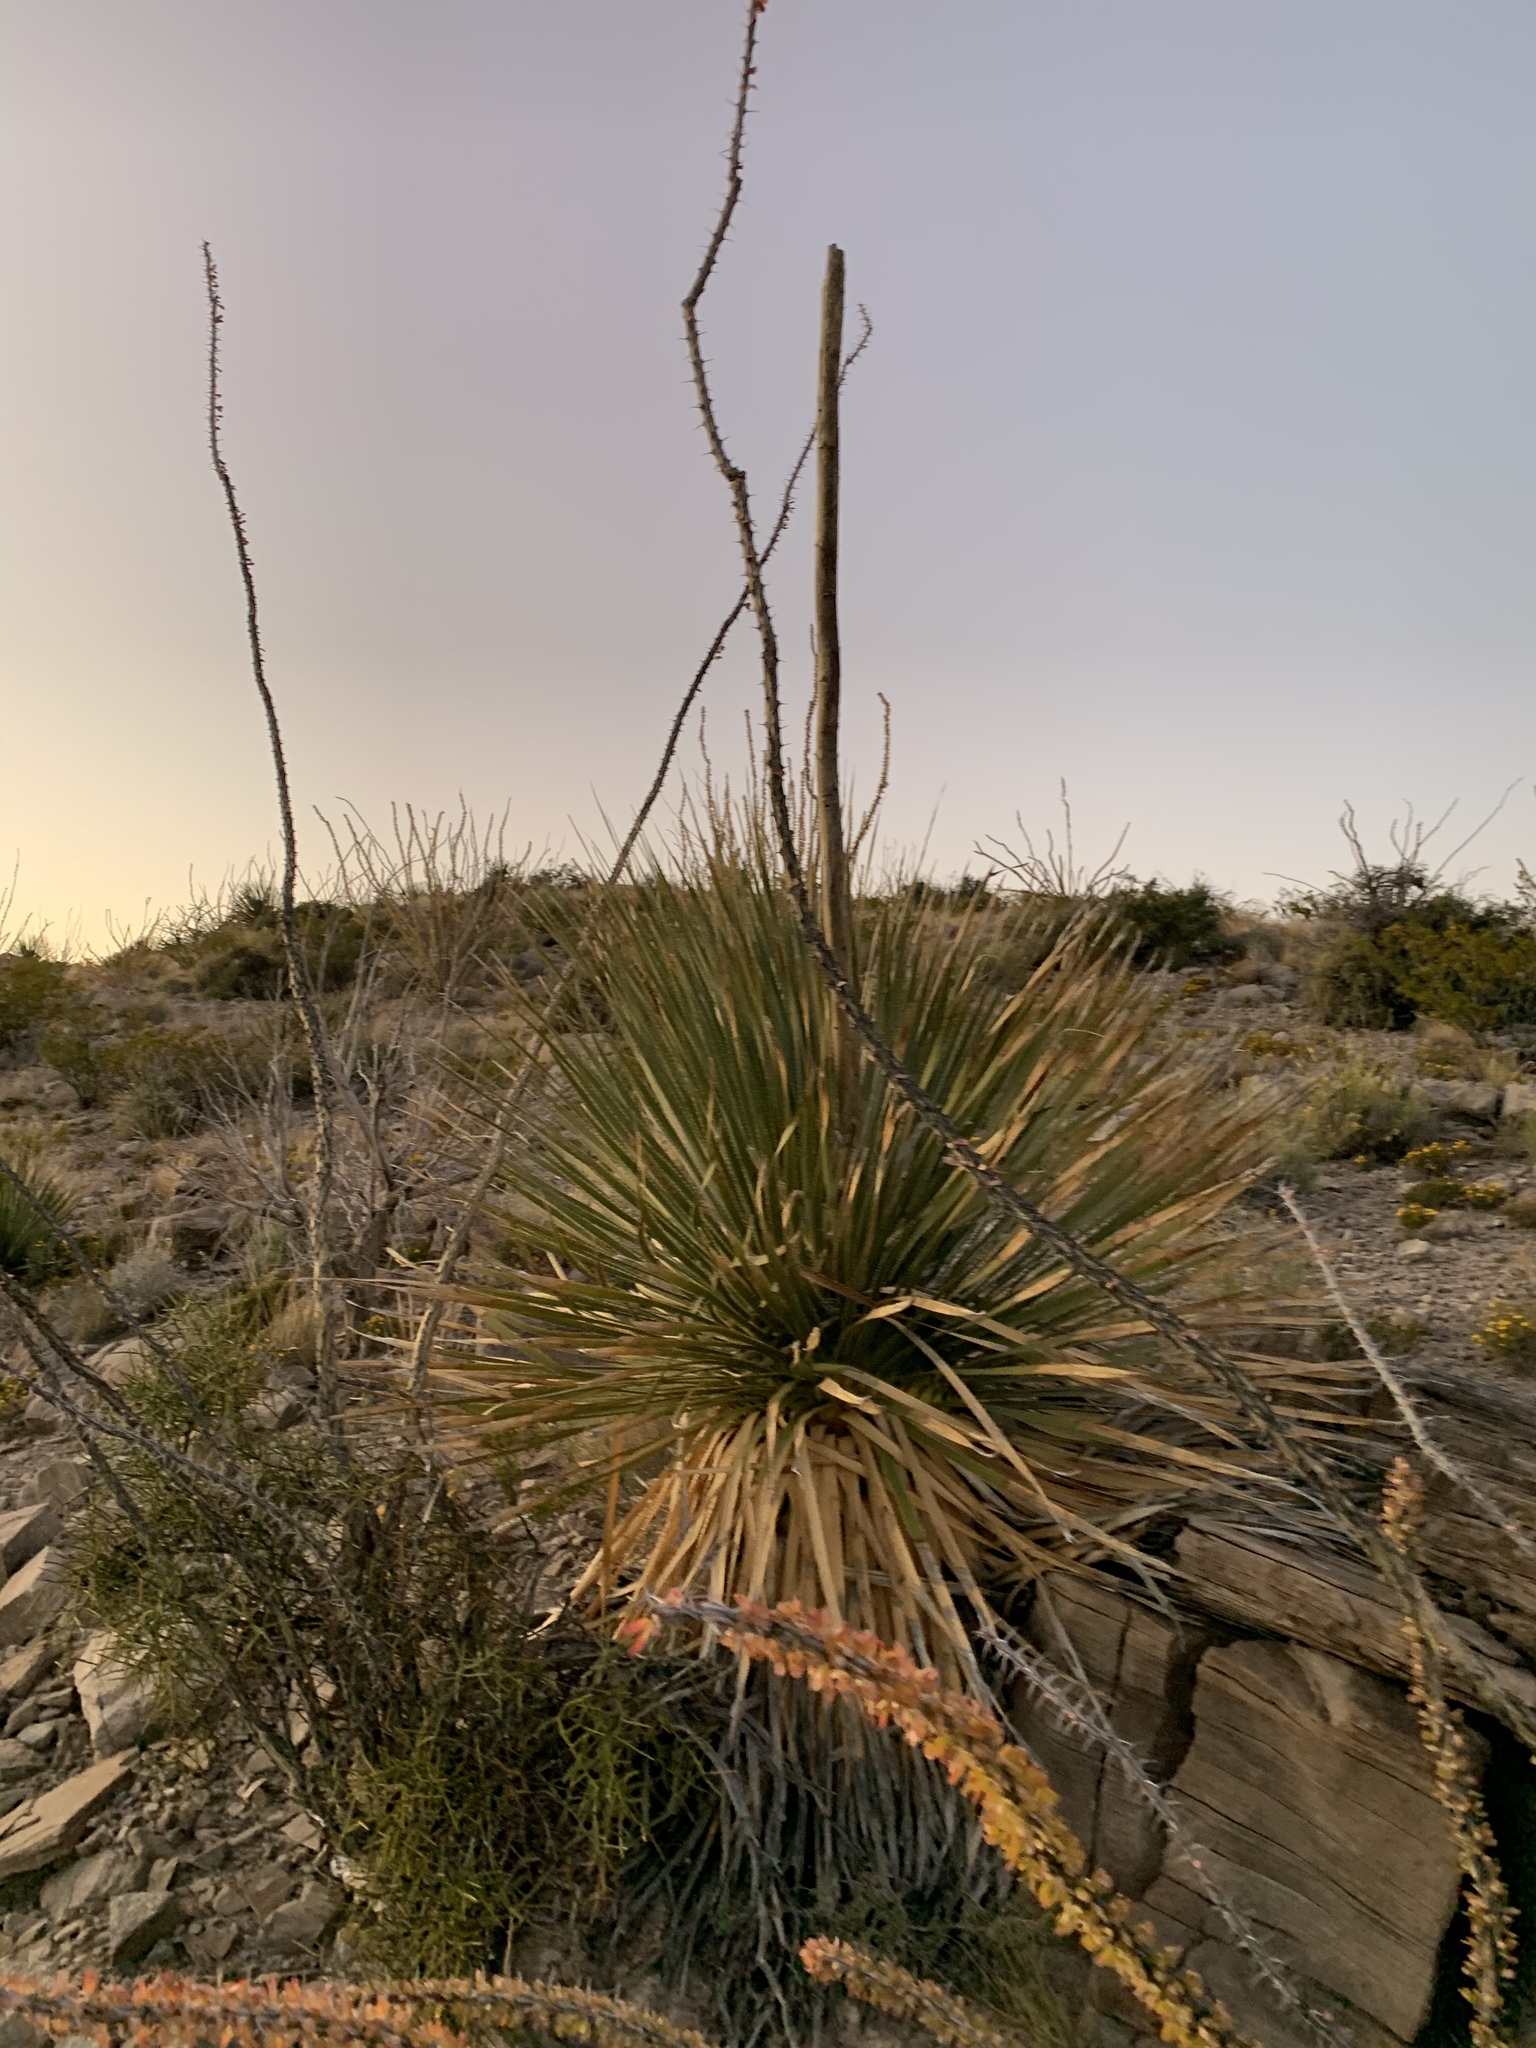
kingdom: Plantae
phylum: Tracheophyta
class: Liliopsida
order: Asparagales
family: Asparagaceae
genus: Dasylirion
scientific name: Dasylirion wheeleri
